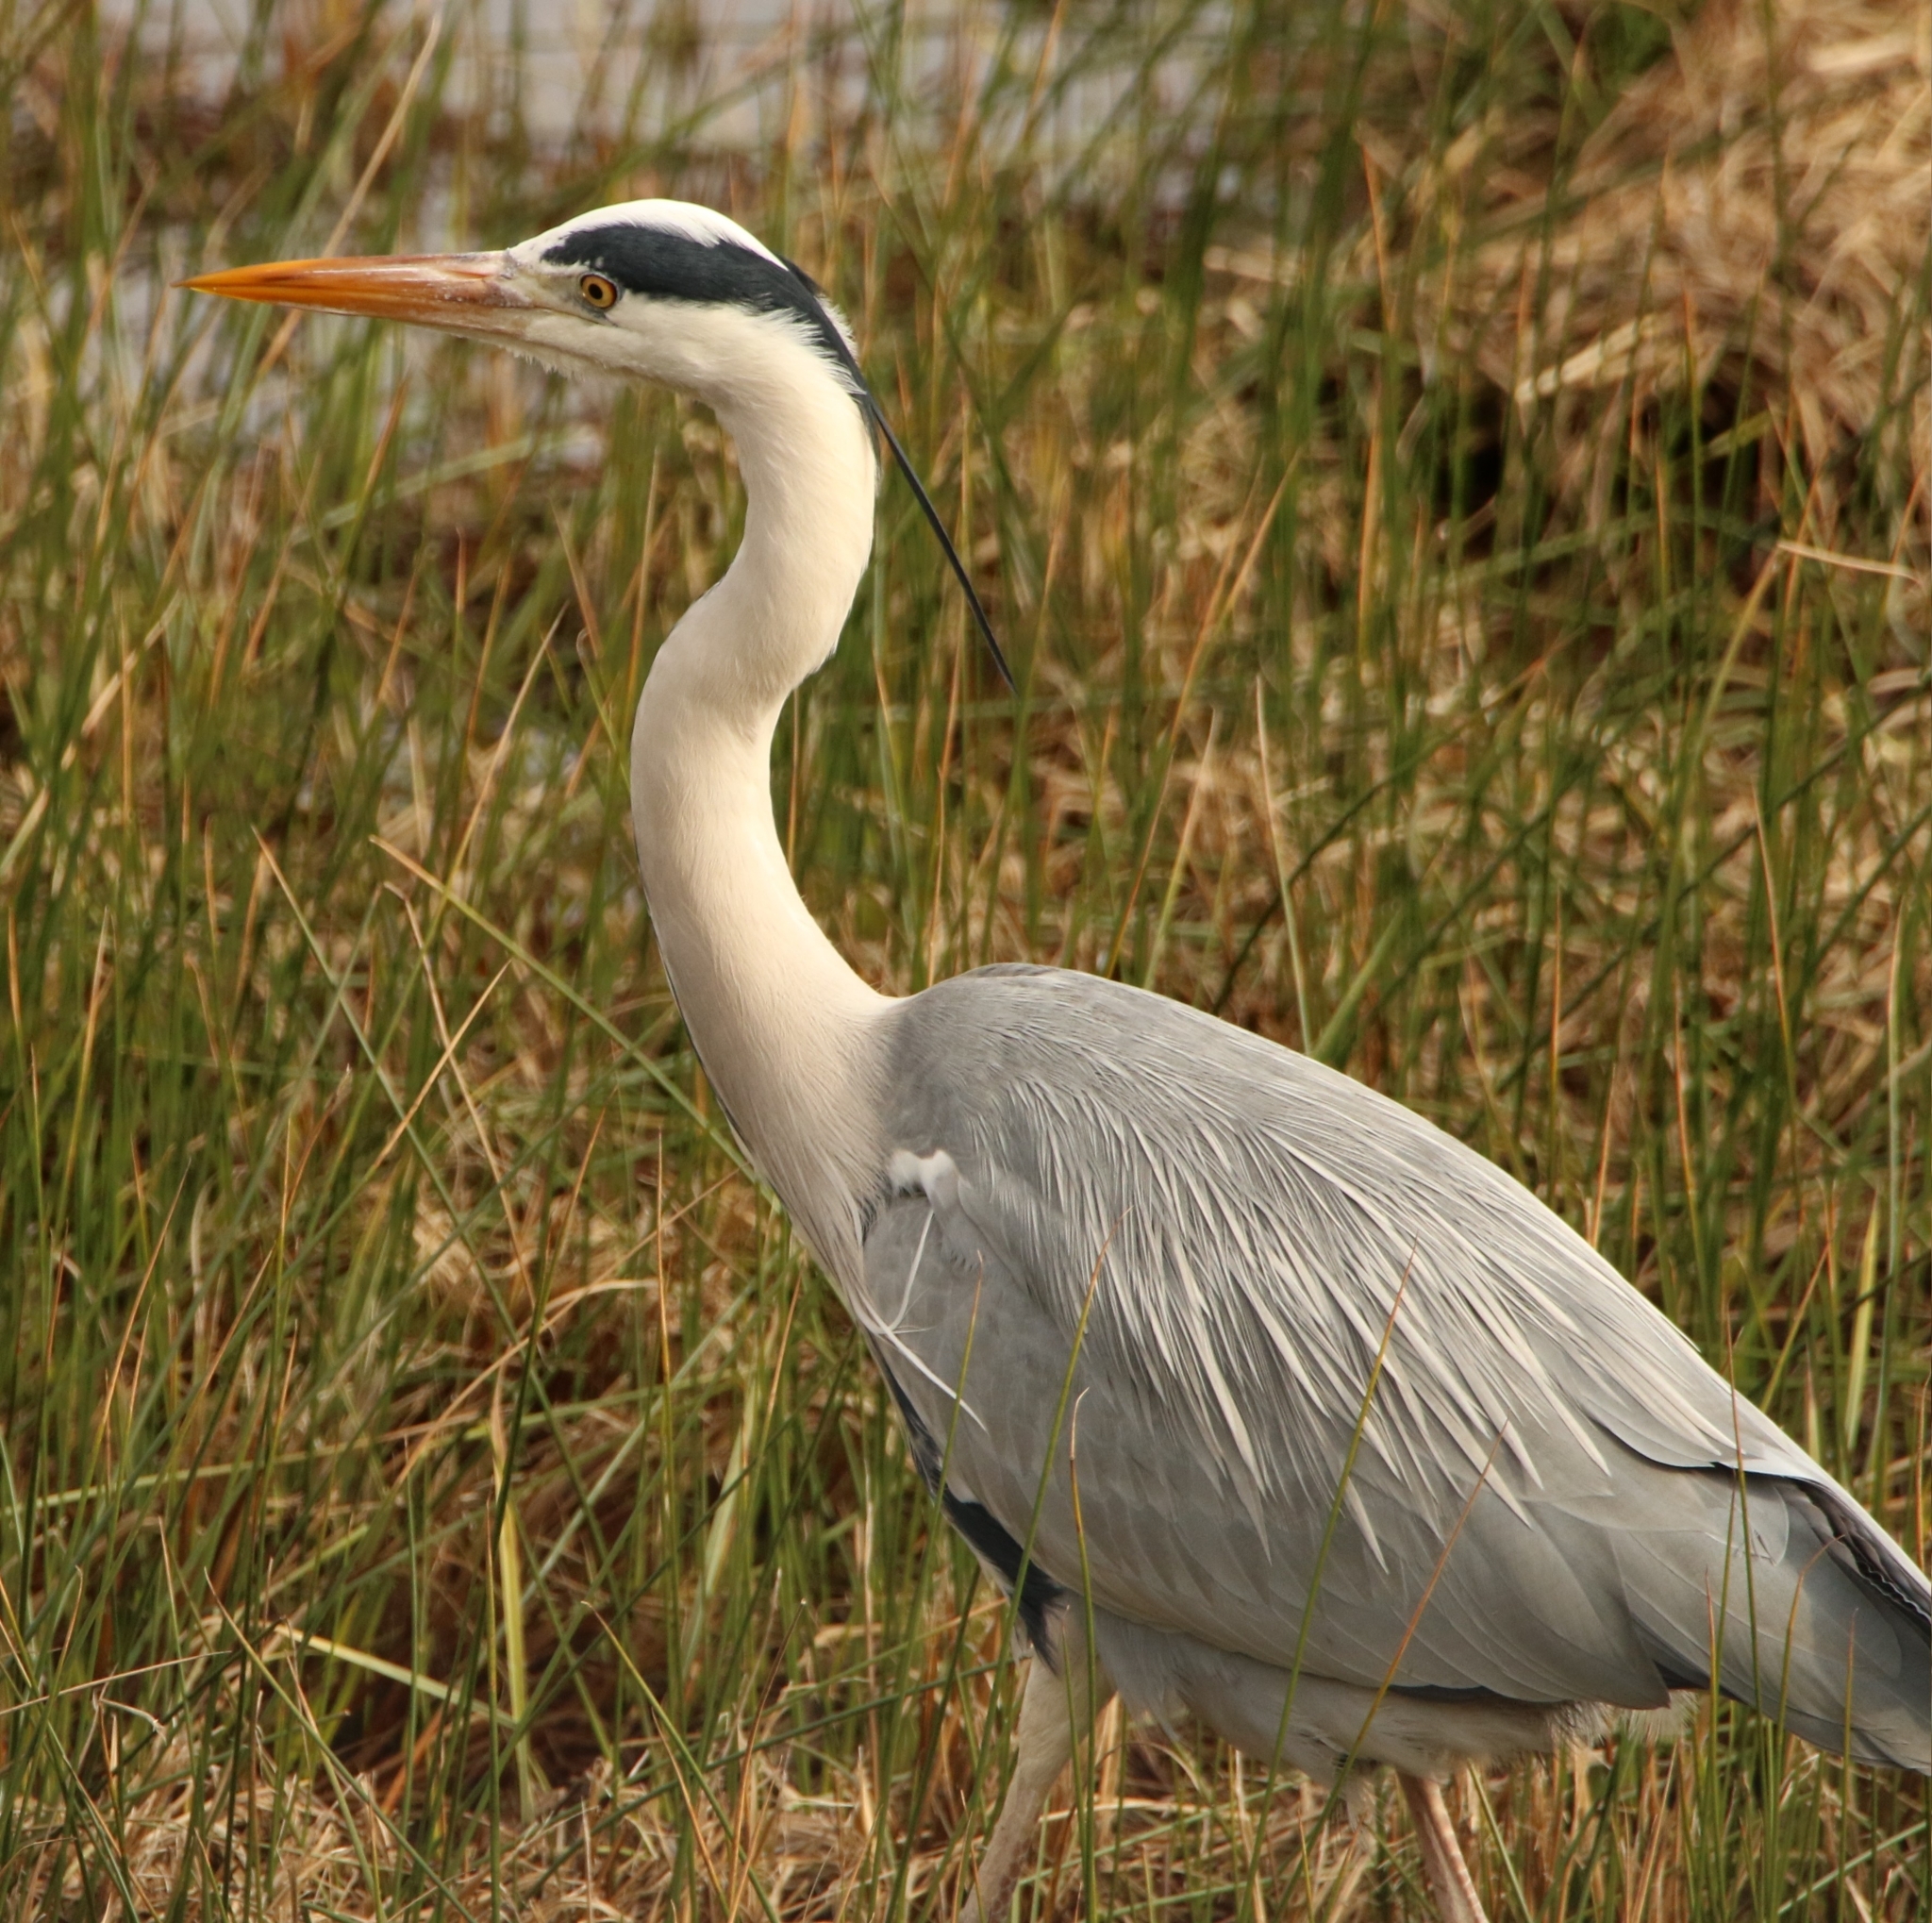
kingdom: Animalia
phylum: Chordata
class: Aves
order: Pelecaniformes
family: Ardeidae
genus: Ardea
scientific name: Ardea cinerea
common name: Grey heron
